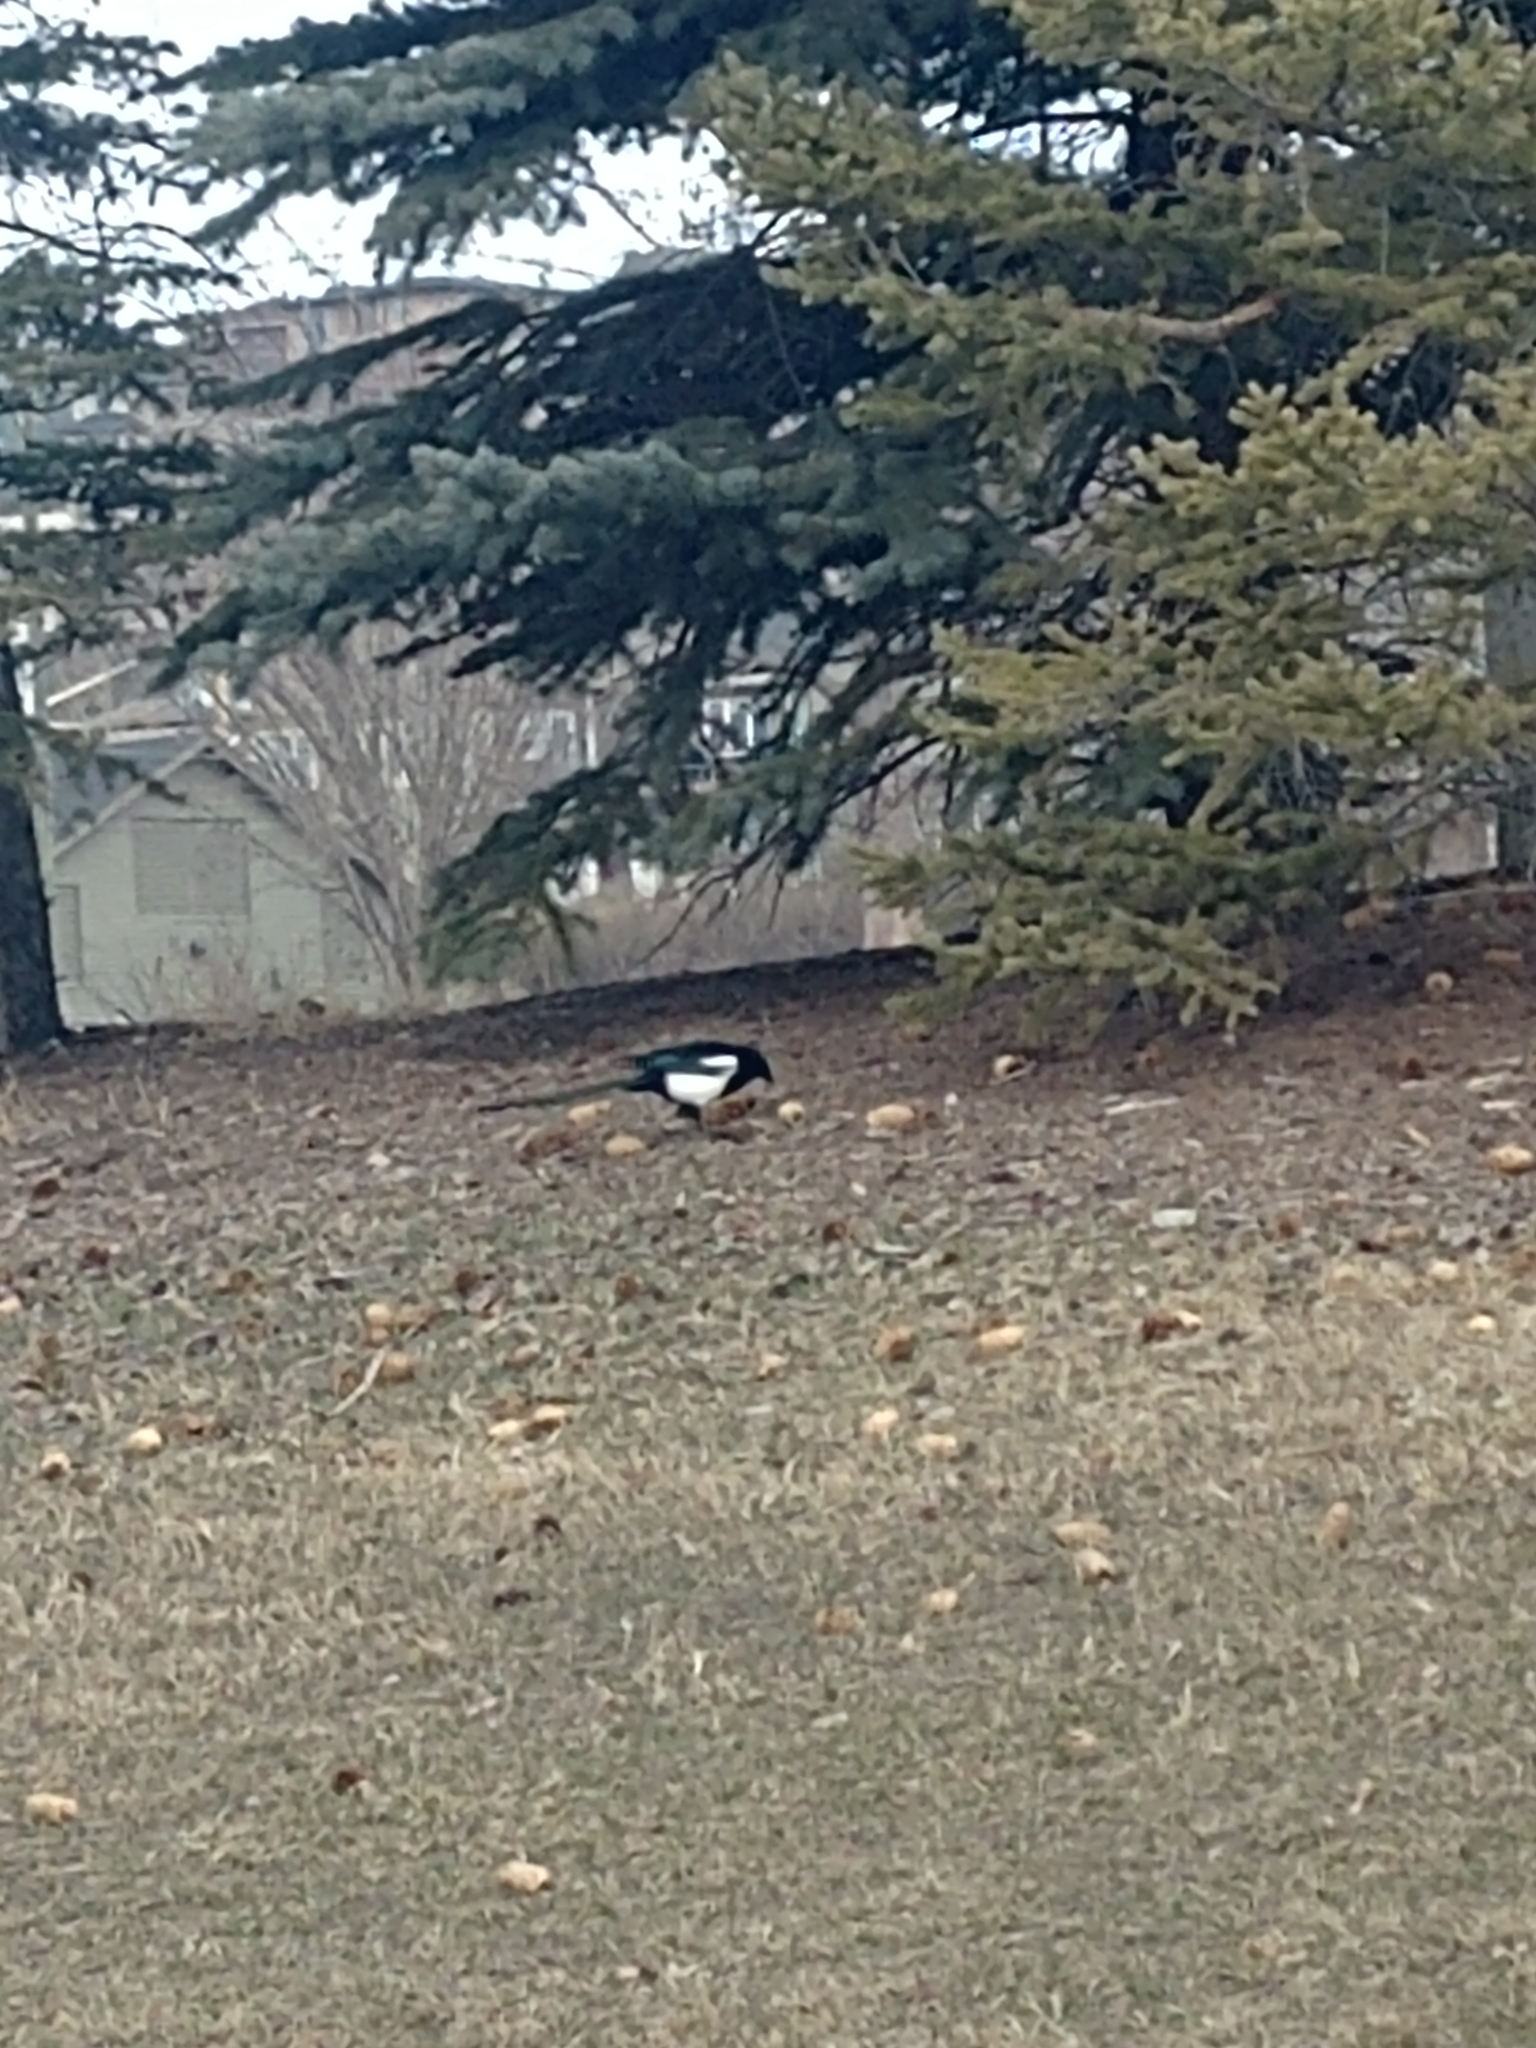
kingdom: Animalia
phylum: Chordata
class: Aves
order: Passeriformes
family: Corvidae
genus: Pica
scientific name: Pica hudsonia
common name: Black-billed magpie
